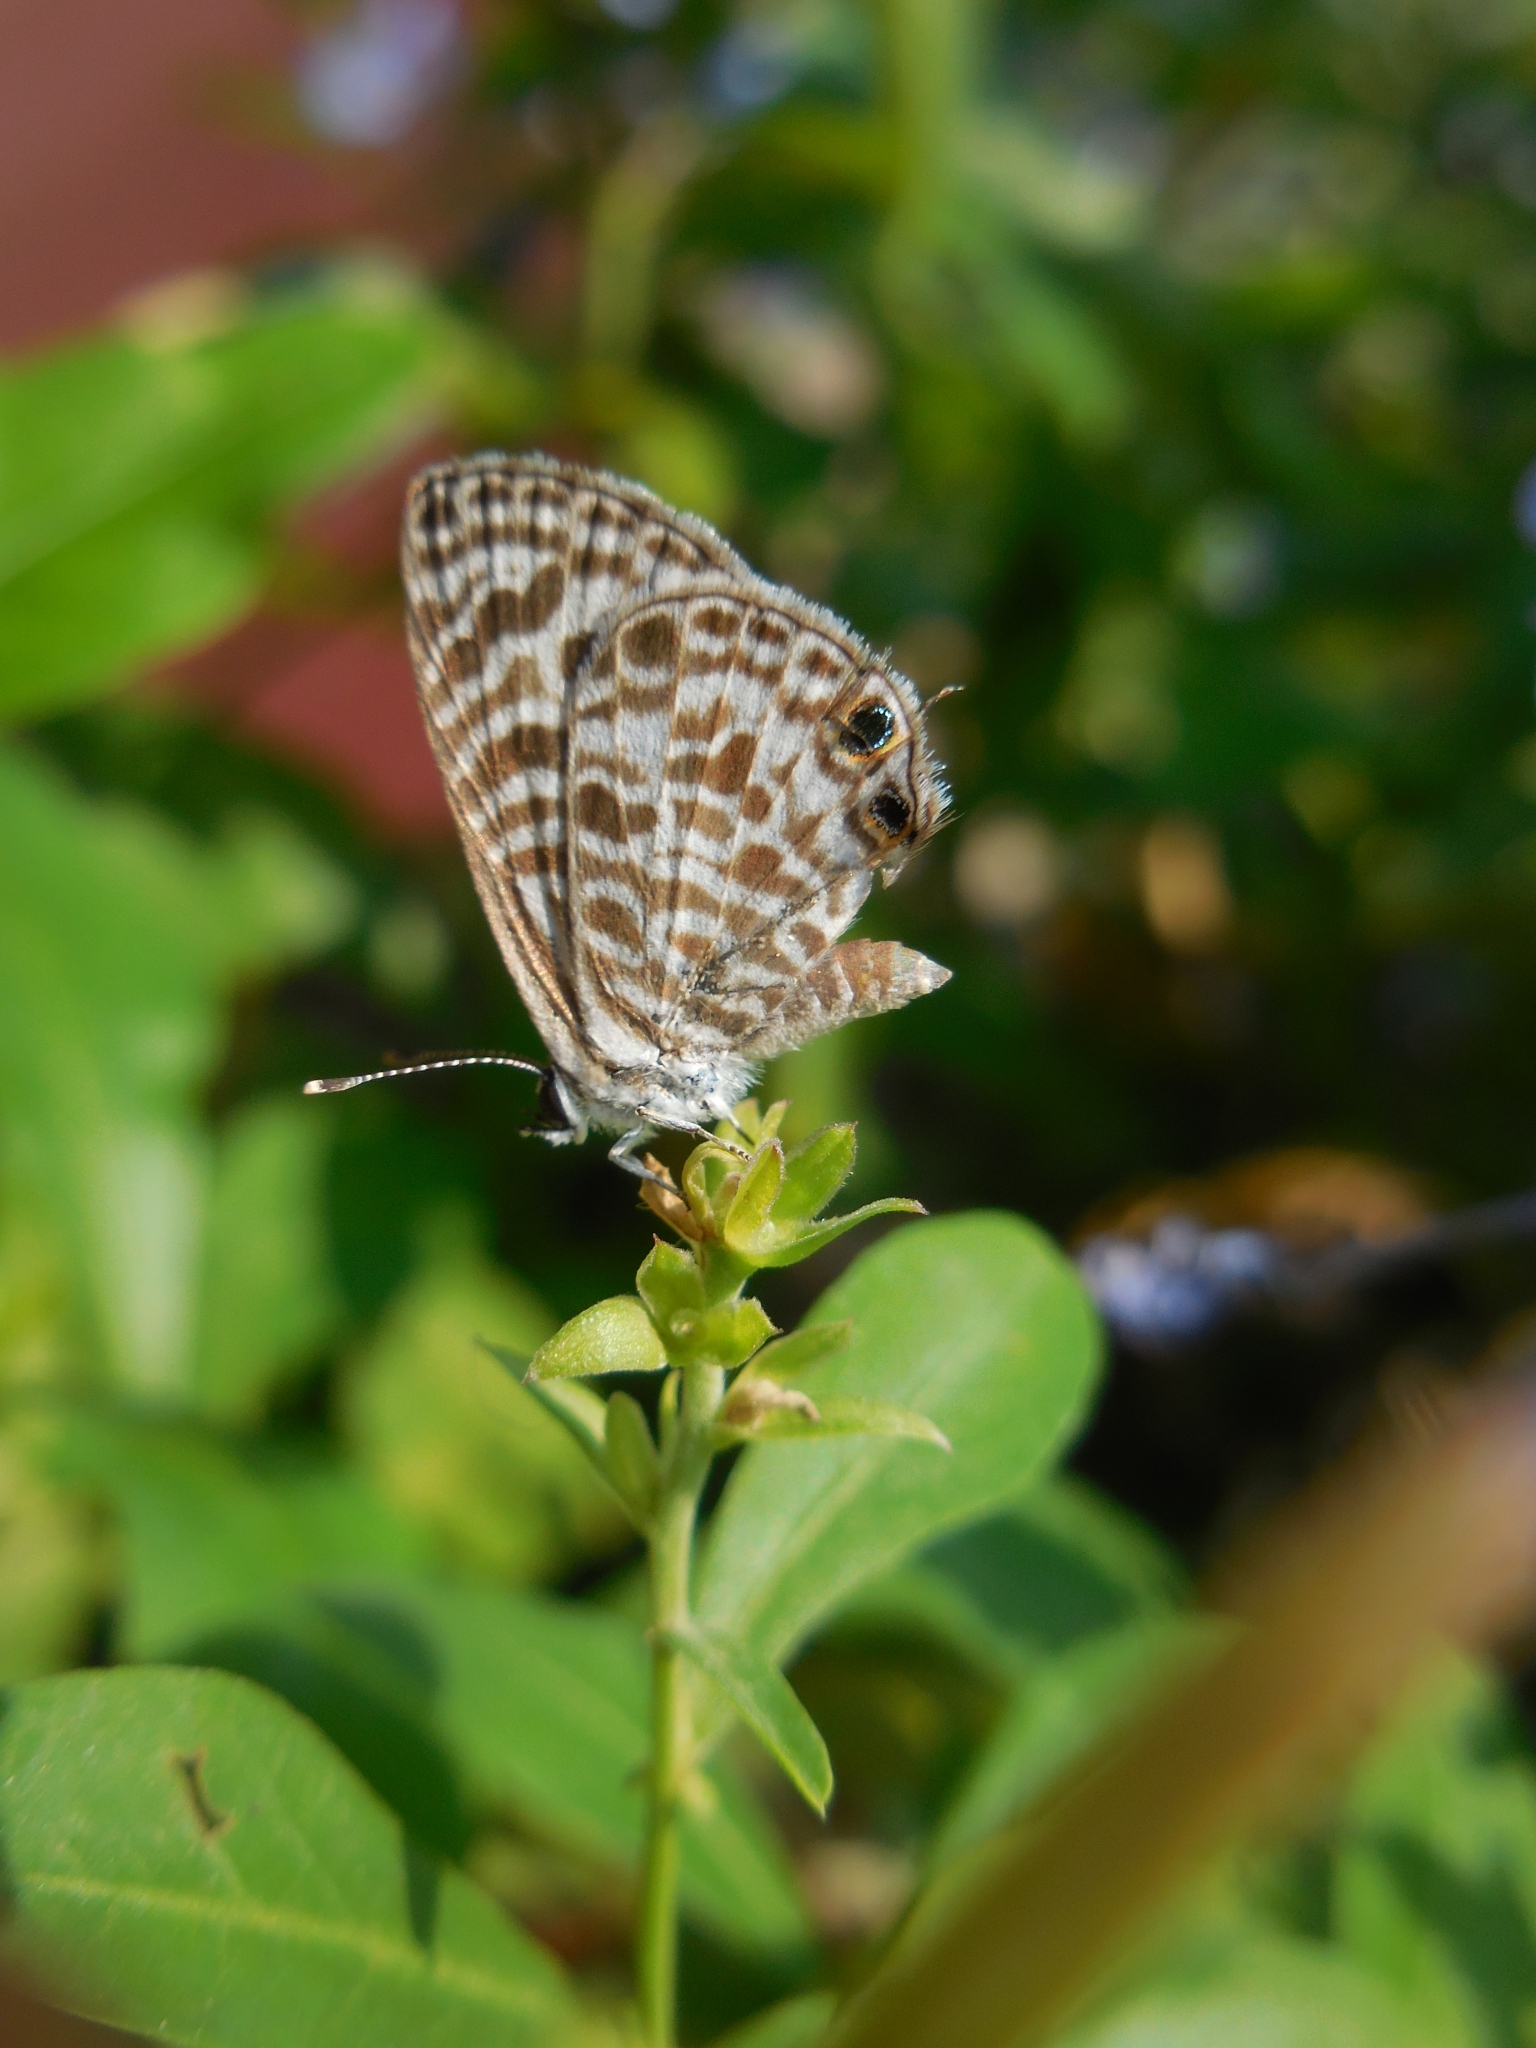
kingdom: Animalia
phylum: Arthropoda
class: Insecta
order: Lepidoptera
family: Lycaenidae
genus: Leptotes
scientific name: Leptotes plinius
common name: Zebra blue
